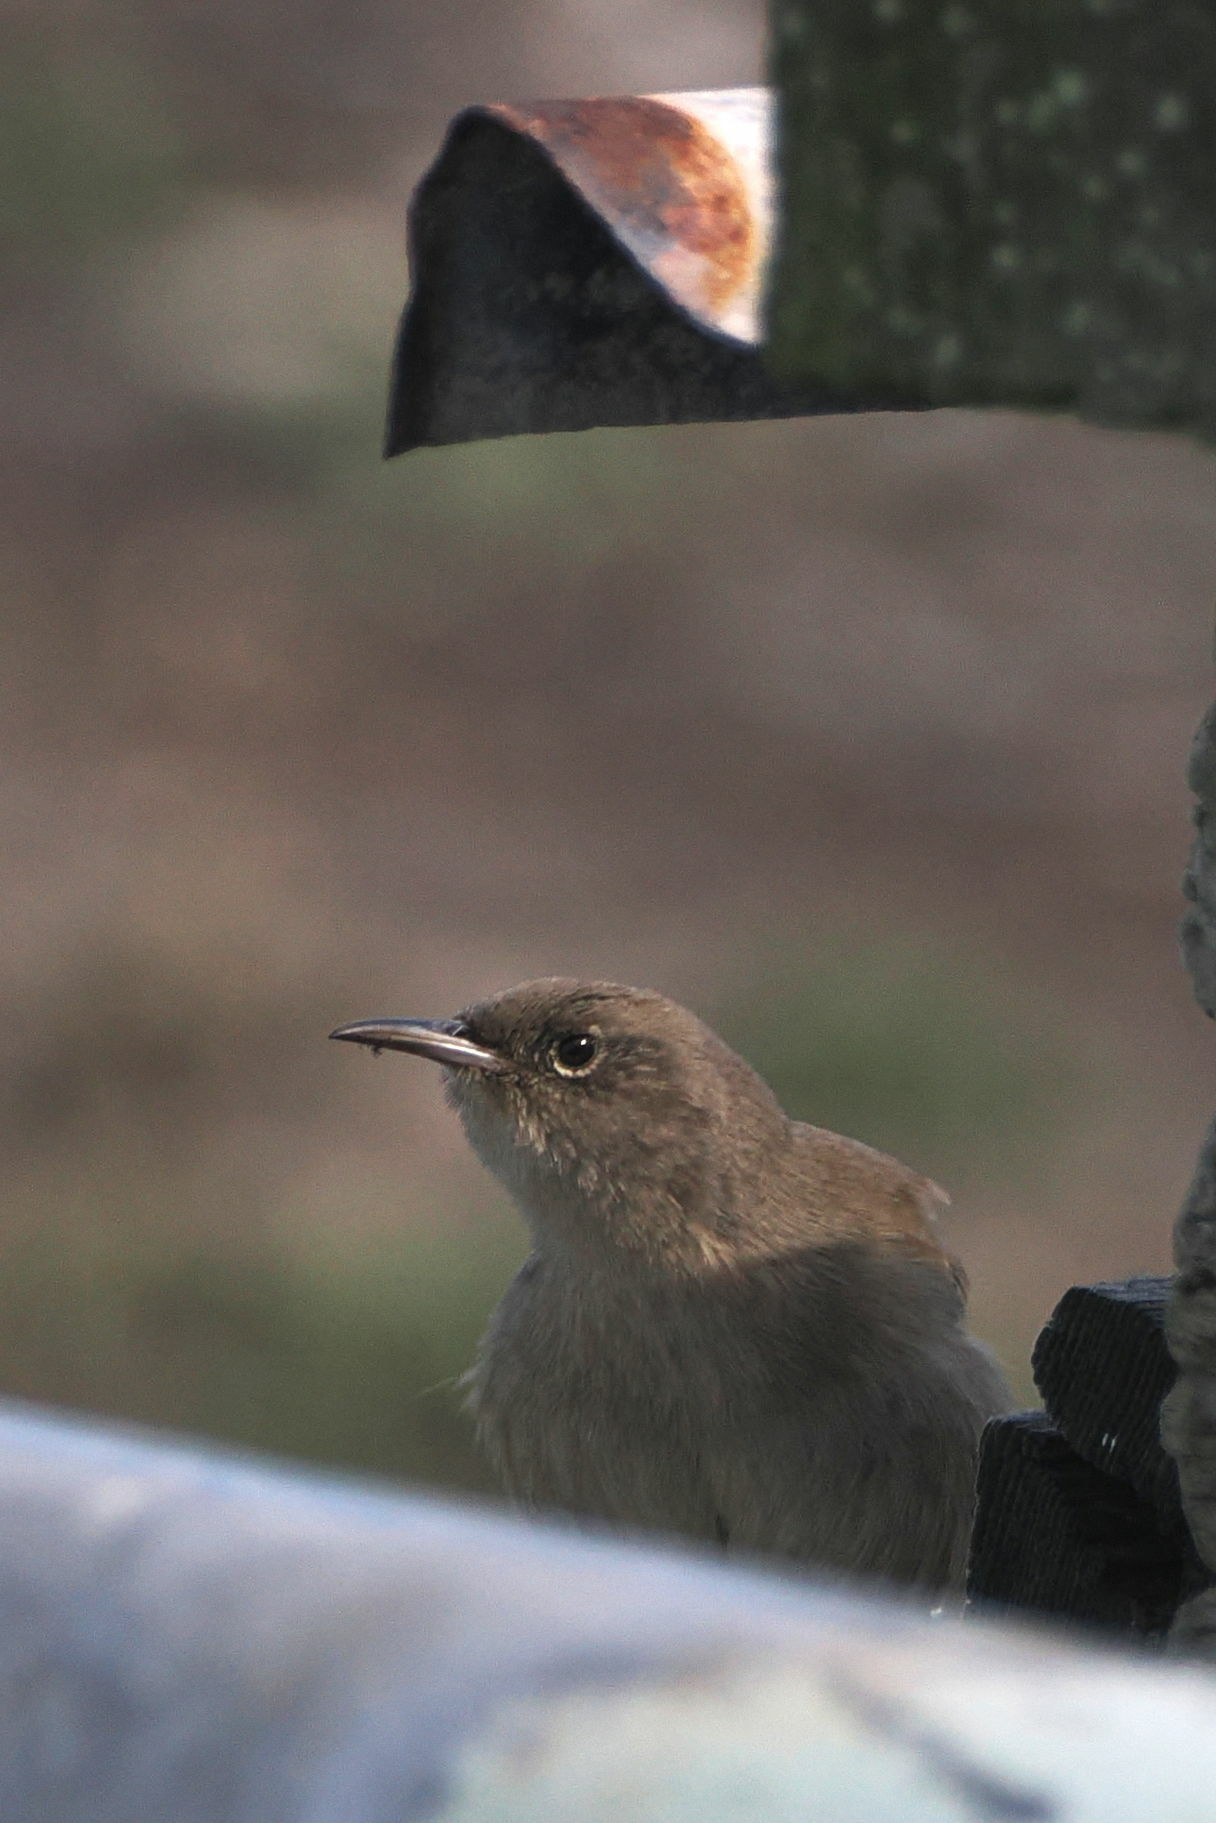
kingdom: Animalia
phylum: Chordata
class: Aves
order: Passeriformes
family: Troglodytidae
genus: Troglodytes
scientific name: Troglodytes cobbi
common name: Cobb's wren
